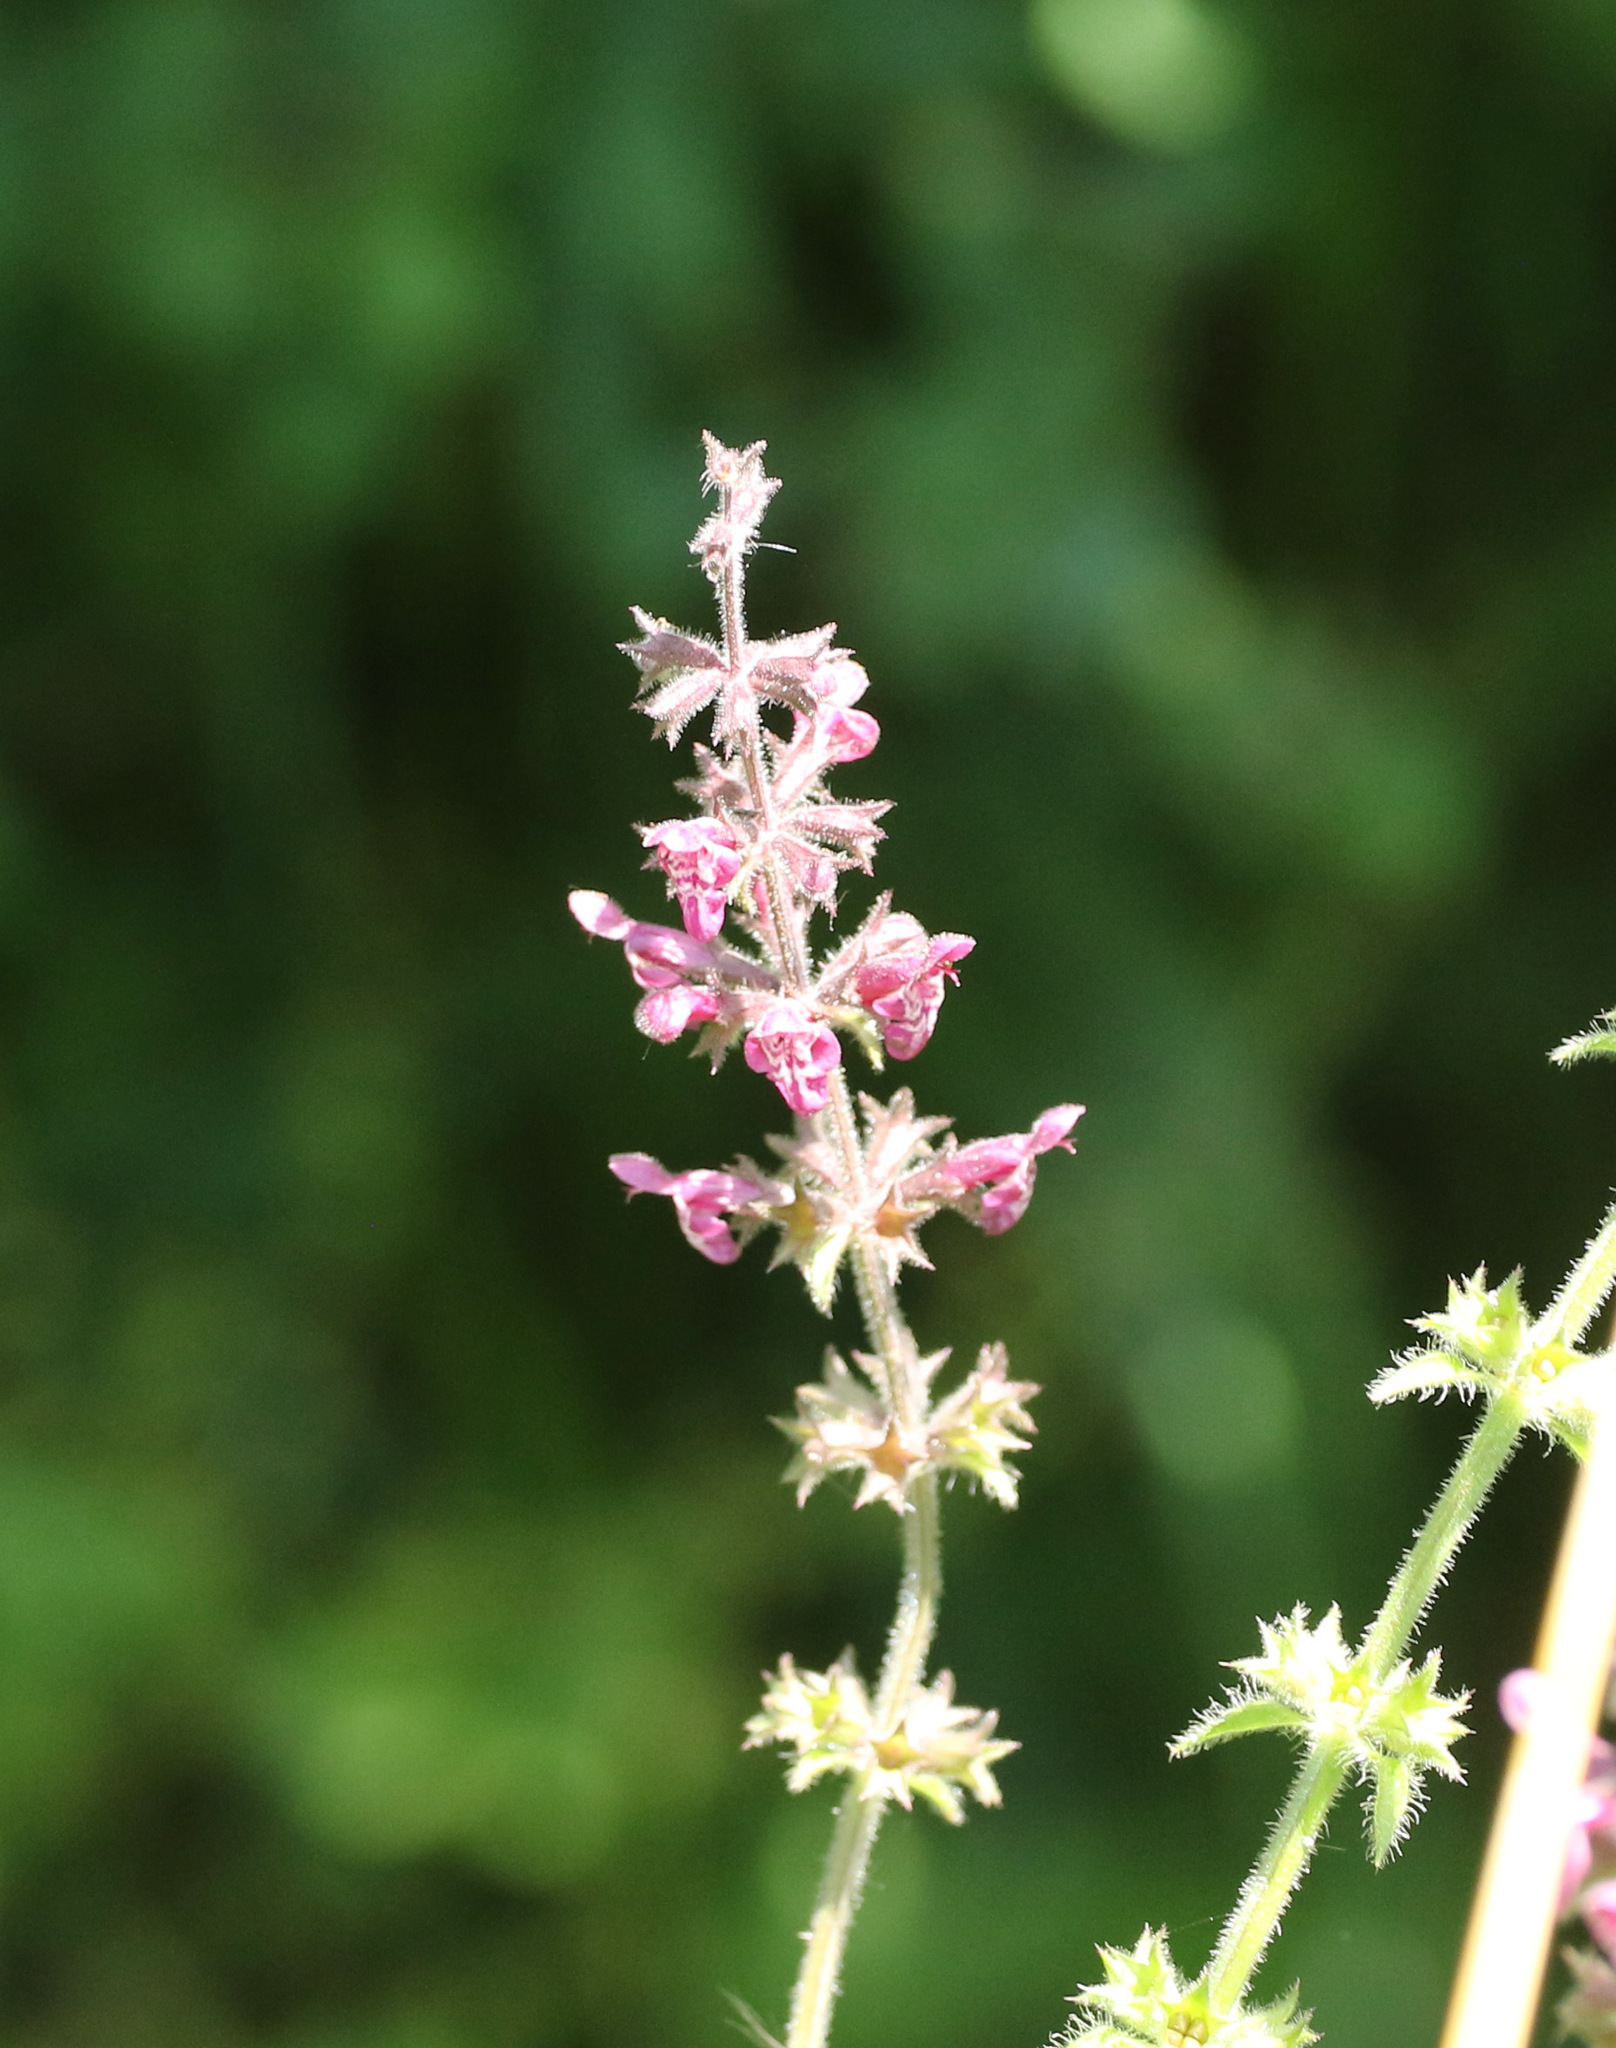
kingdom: Plantae
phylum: Tracheophyta
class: Magnoliopsida
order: Lamiales
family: Lamiaceae
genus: Stachys
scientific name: Stachys sylvatica
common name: Hedge woundwort
